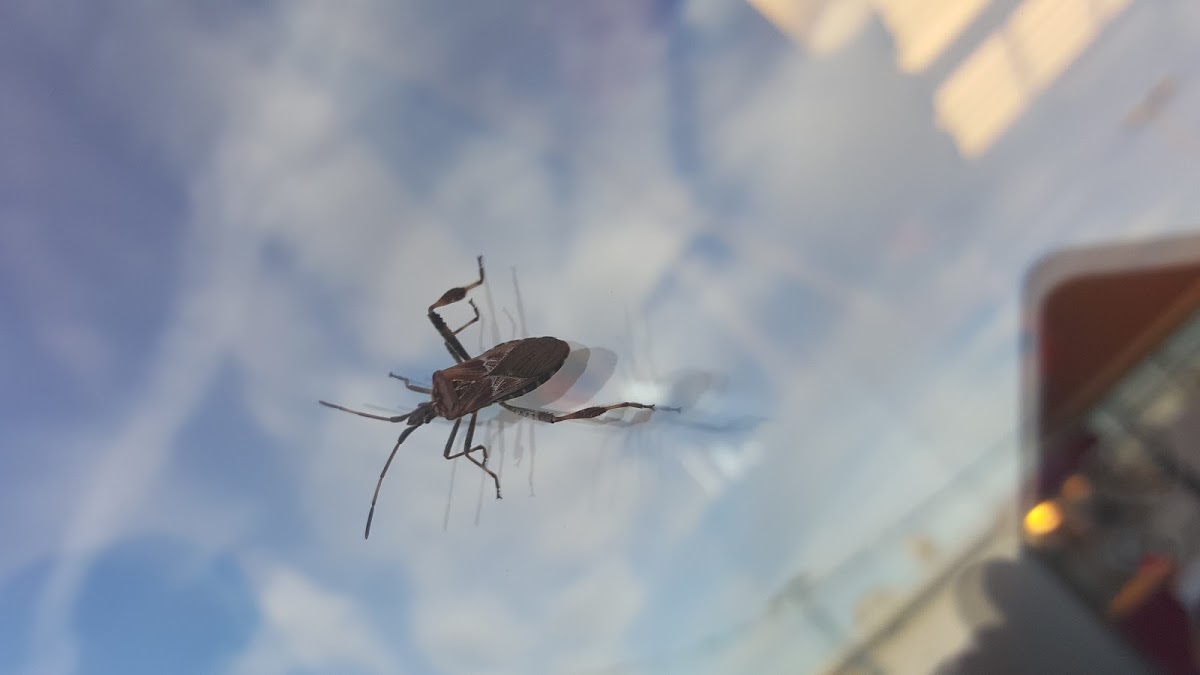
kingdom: Animalia
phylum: Arthropoda
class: Insecta
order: Hemiptera
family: Coreidae
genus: Leptoglossus
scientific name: Leptoglossus occidentalis
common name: Western conifer-seed bug
